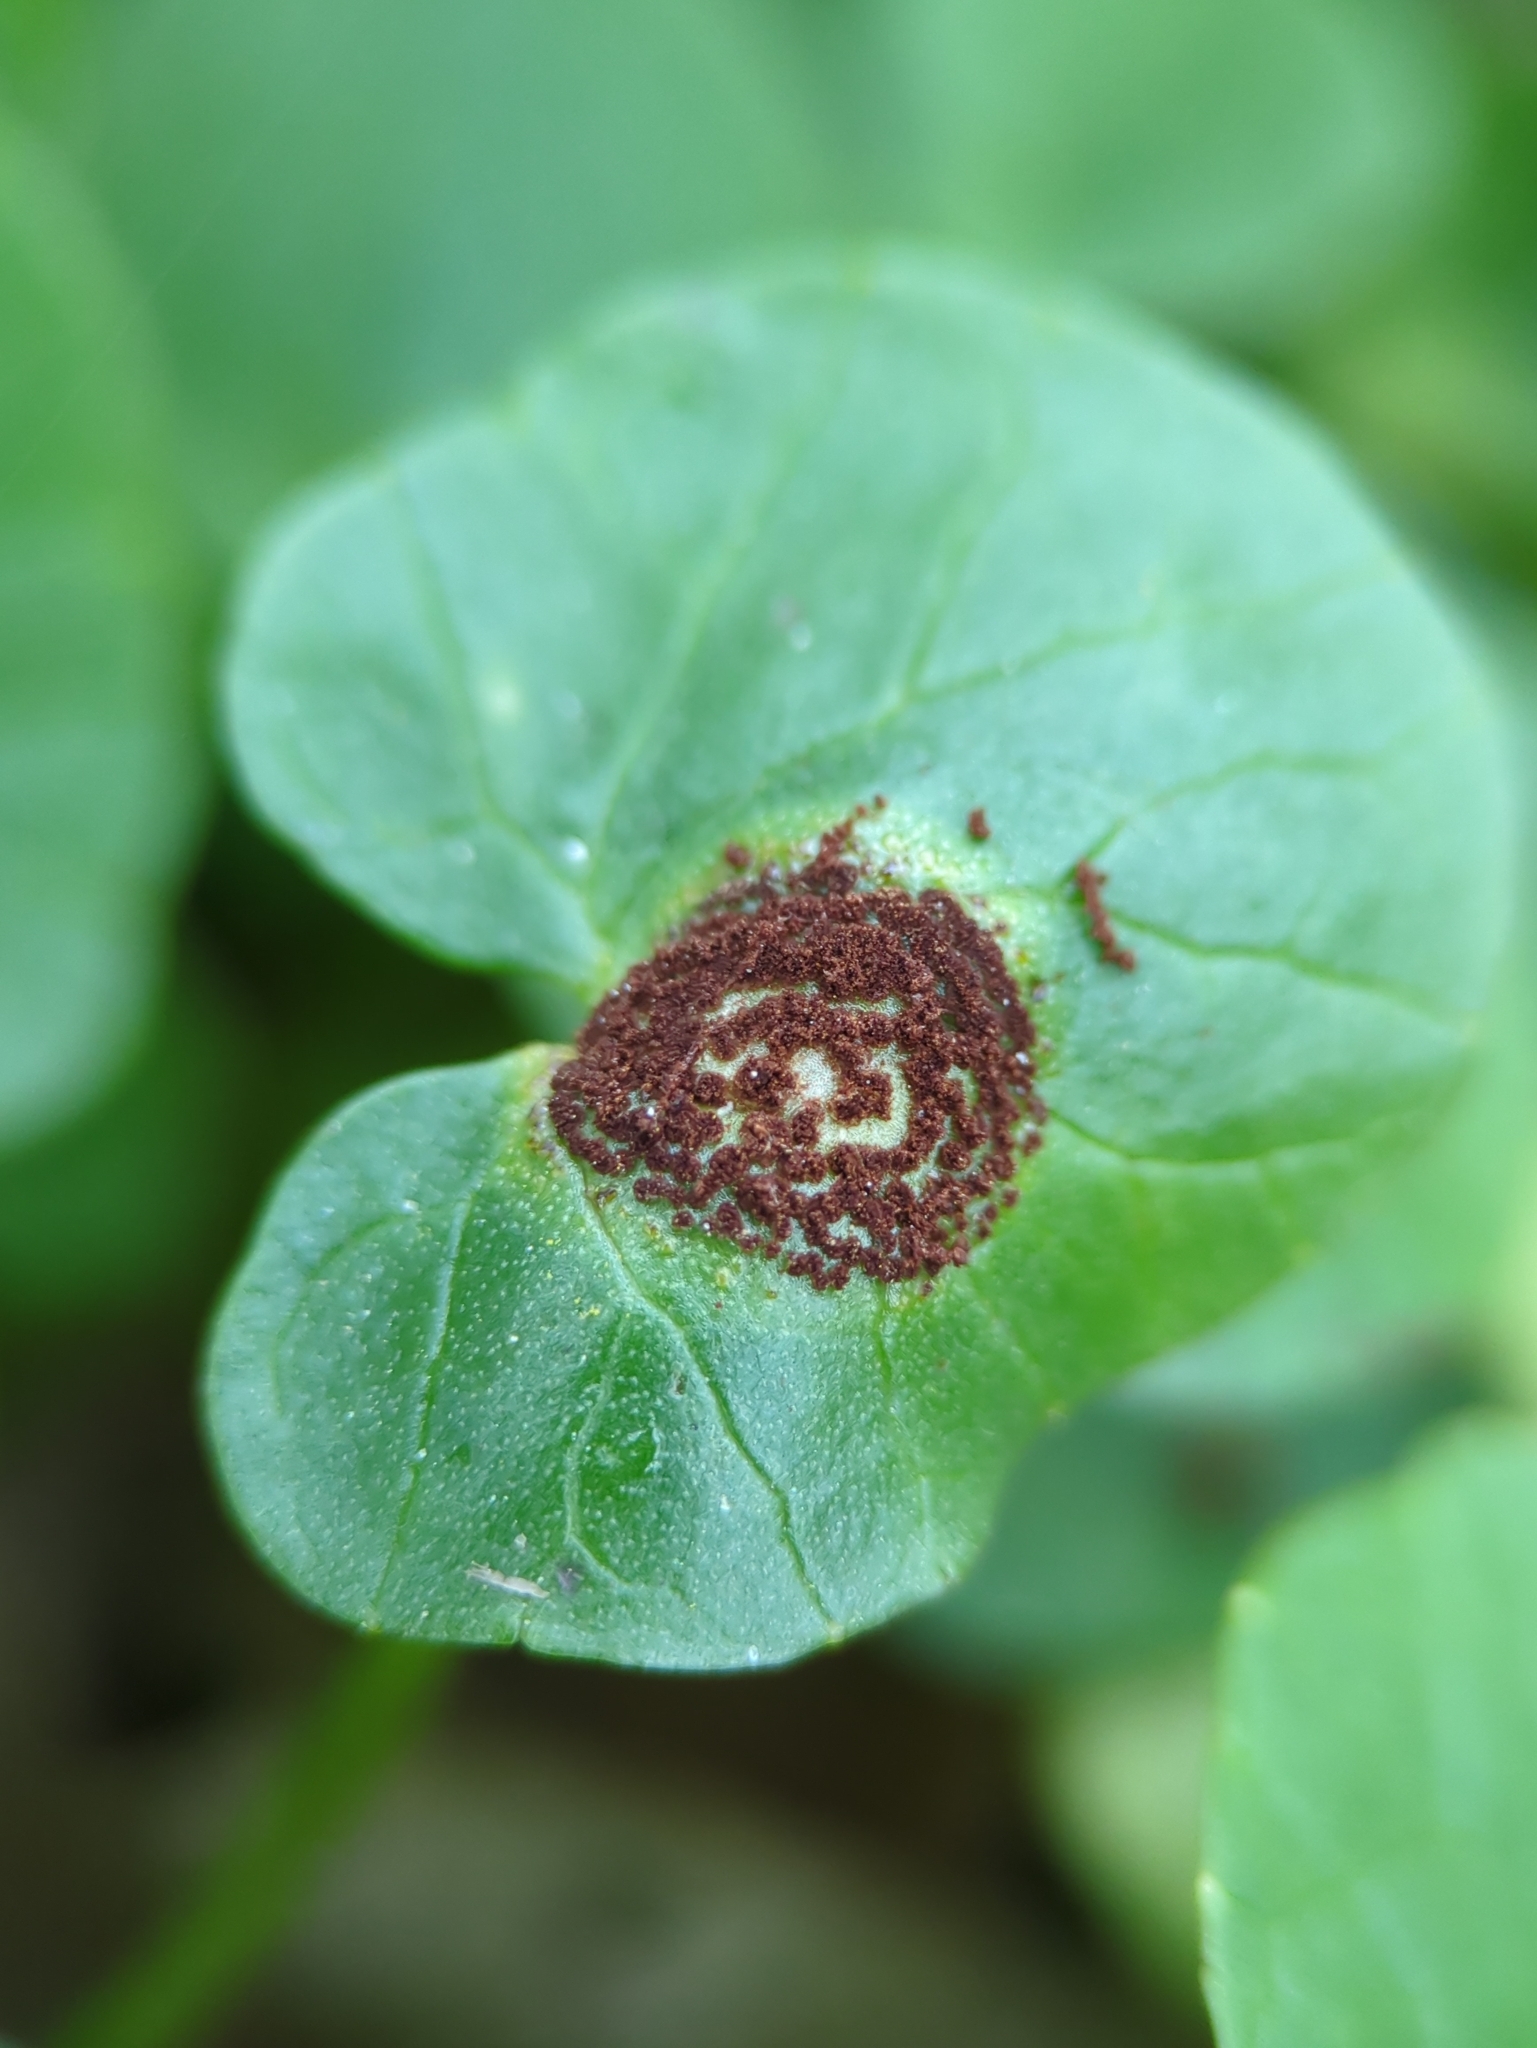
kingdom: Fungi
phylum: Basidiomycota
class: Pucciniomycetes
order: Pucciniales
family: Pucciniaceae
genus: Uromyces
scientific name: Uromyces ficariae
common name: Bitter chocolate rust
